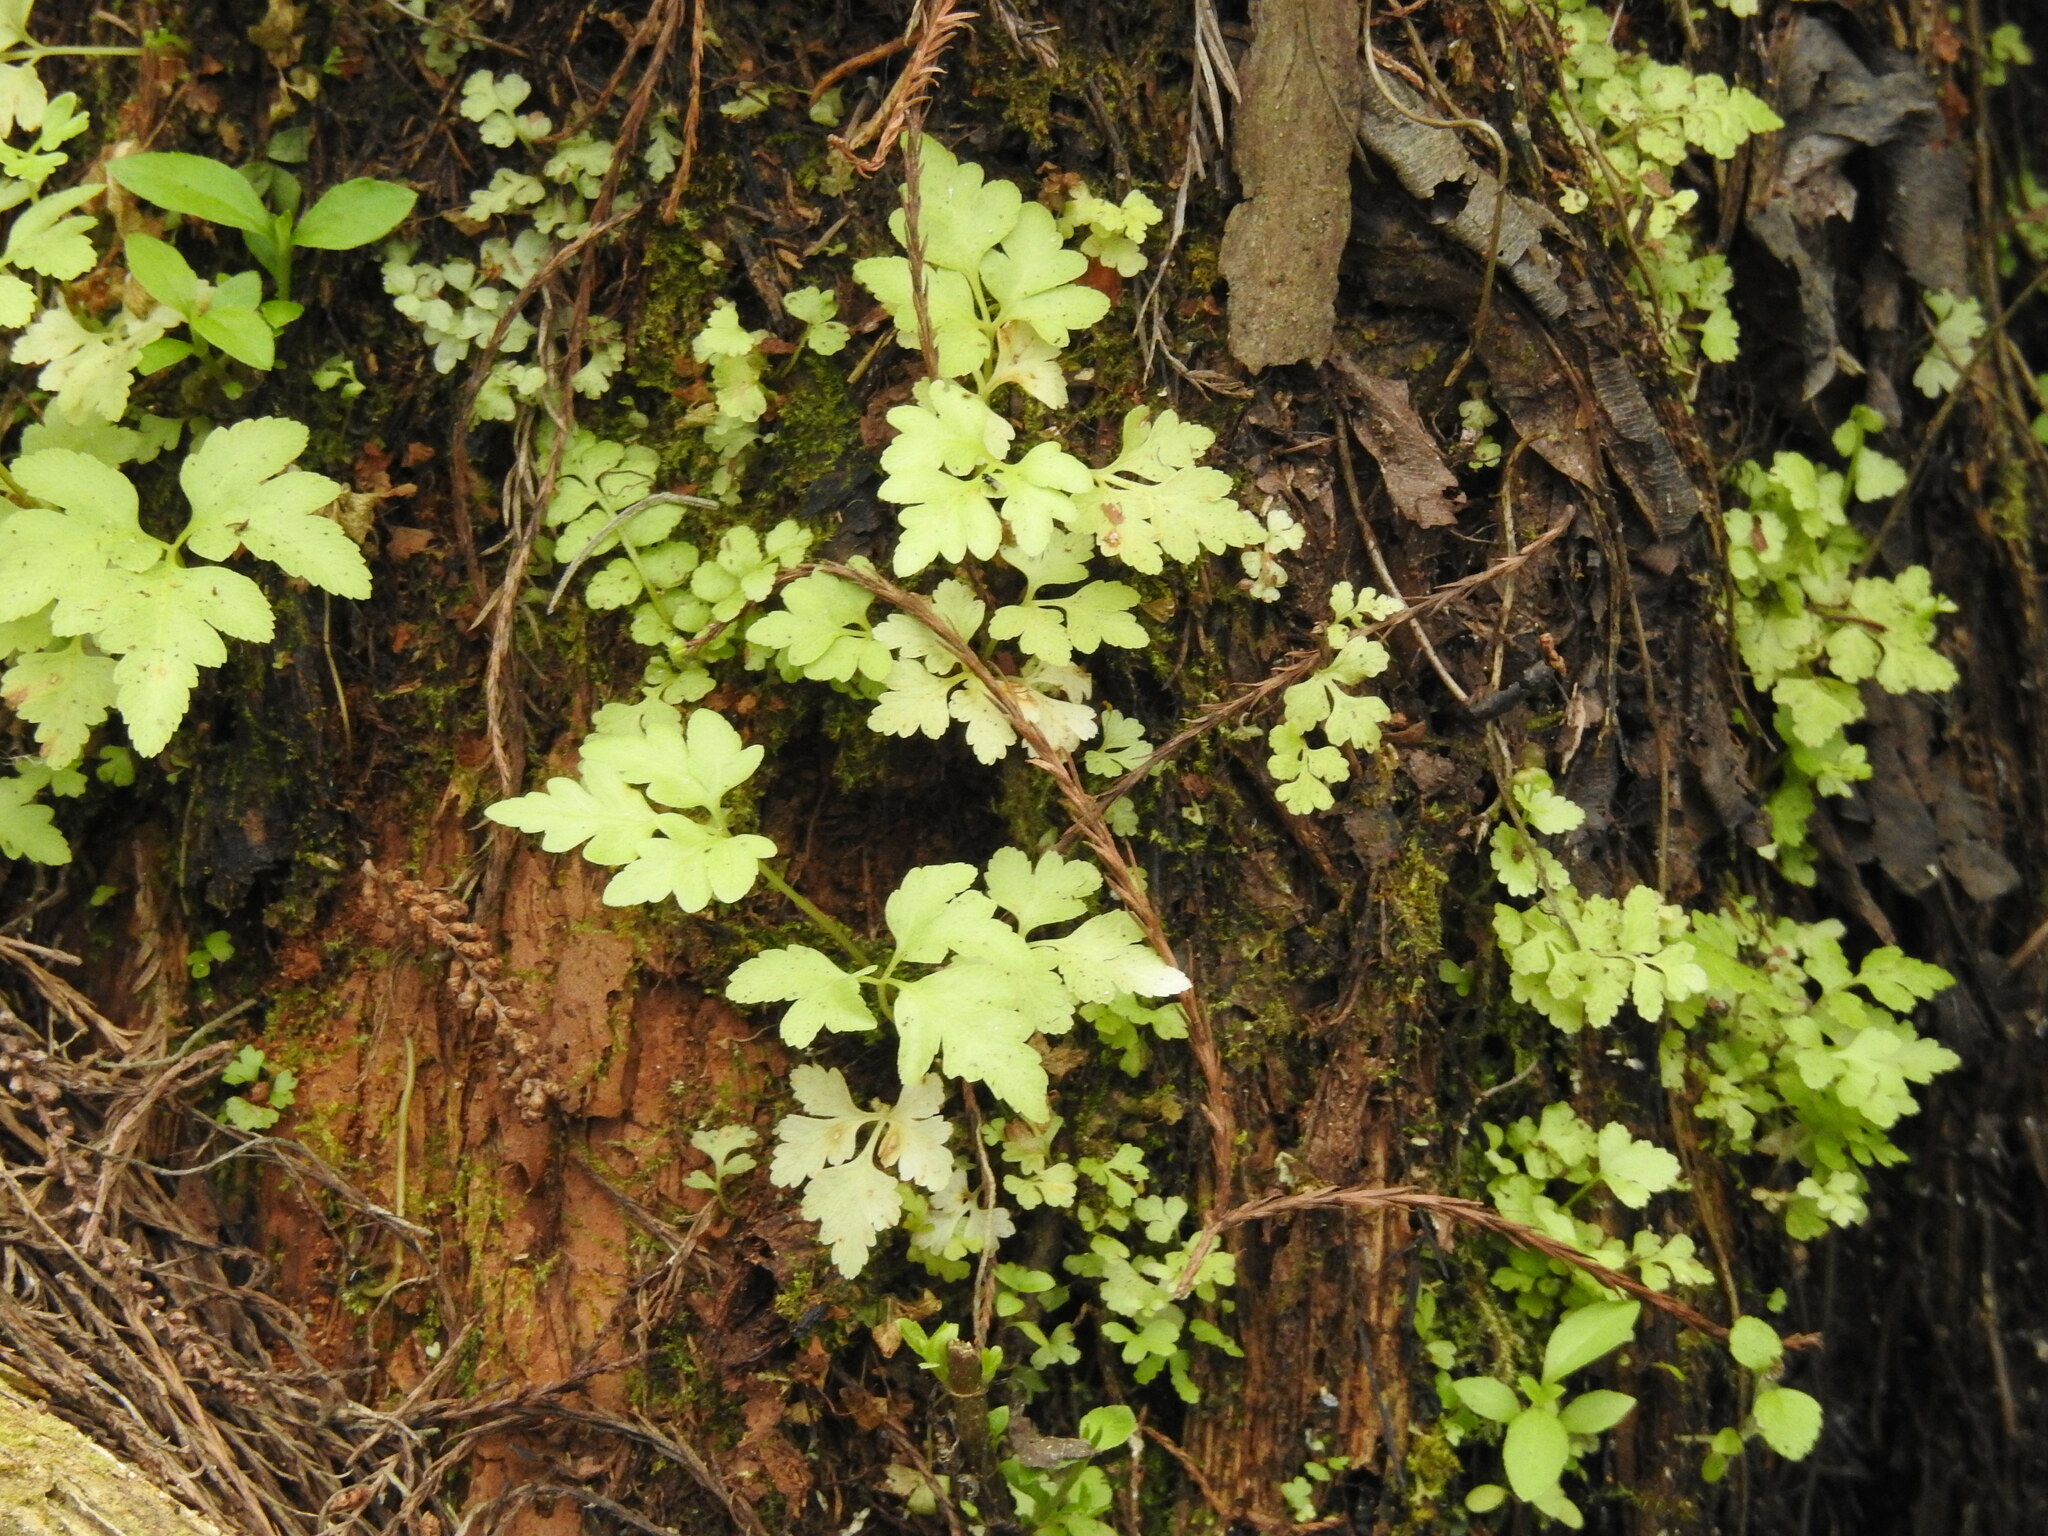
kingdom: Plantae
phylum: Tracheophyta
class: Polypodiopsida
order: Polypodiales
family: Pteridaceae
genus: Pteris
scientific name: Pteris tripartita
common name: Giant brake
